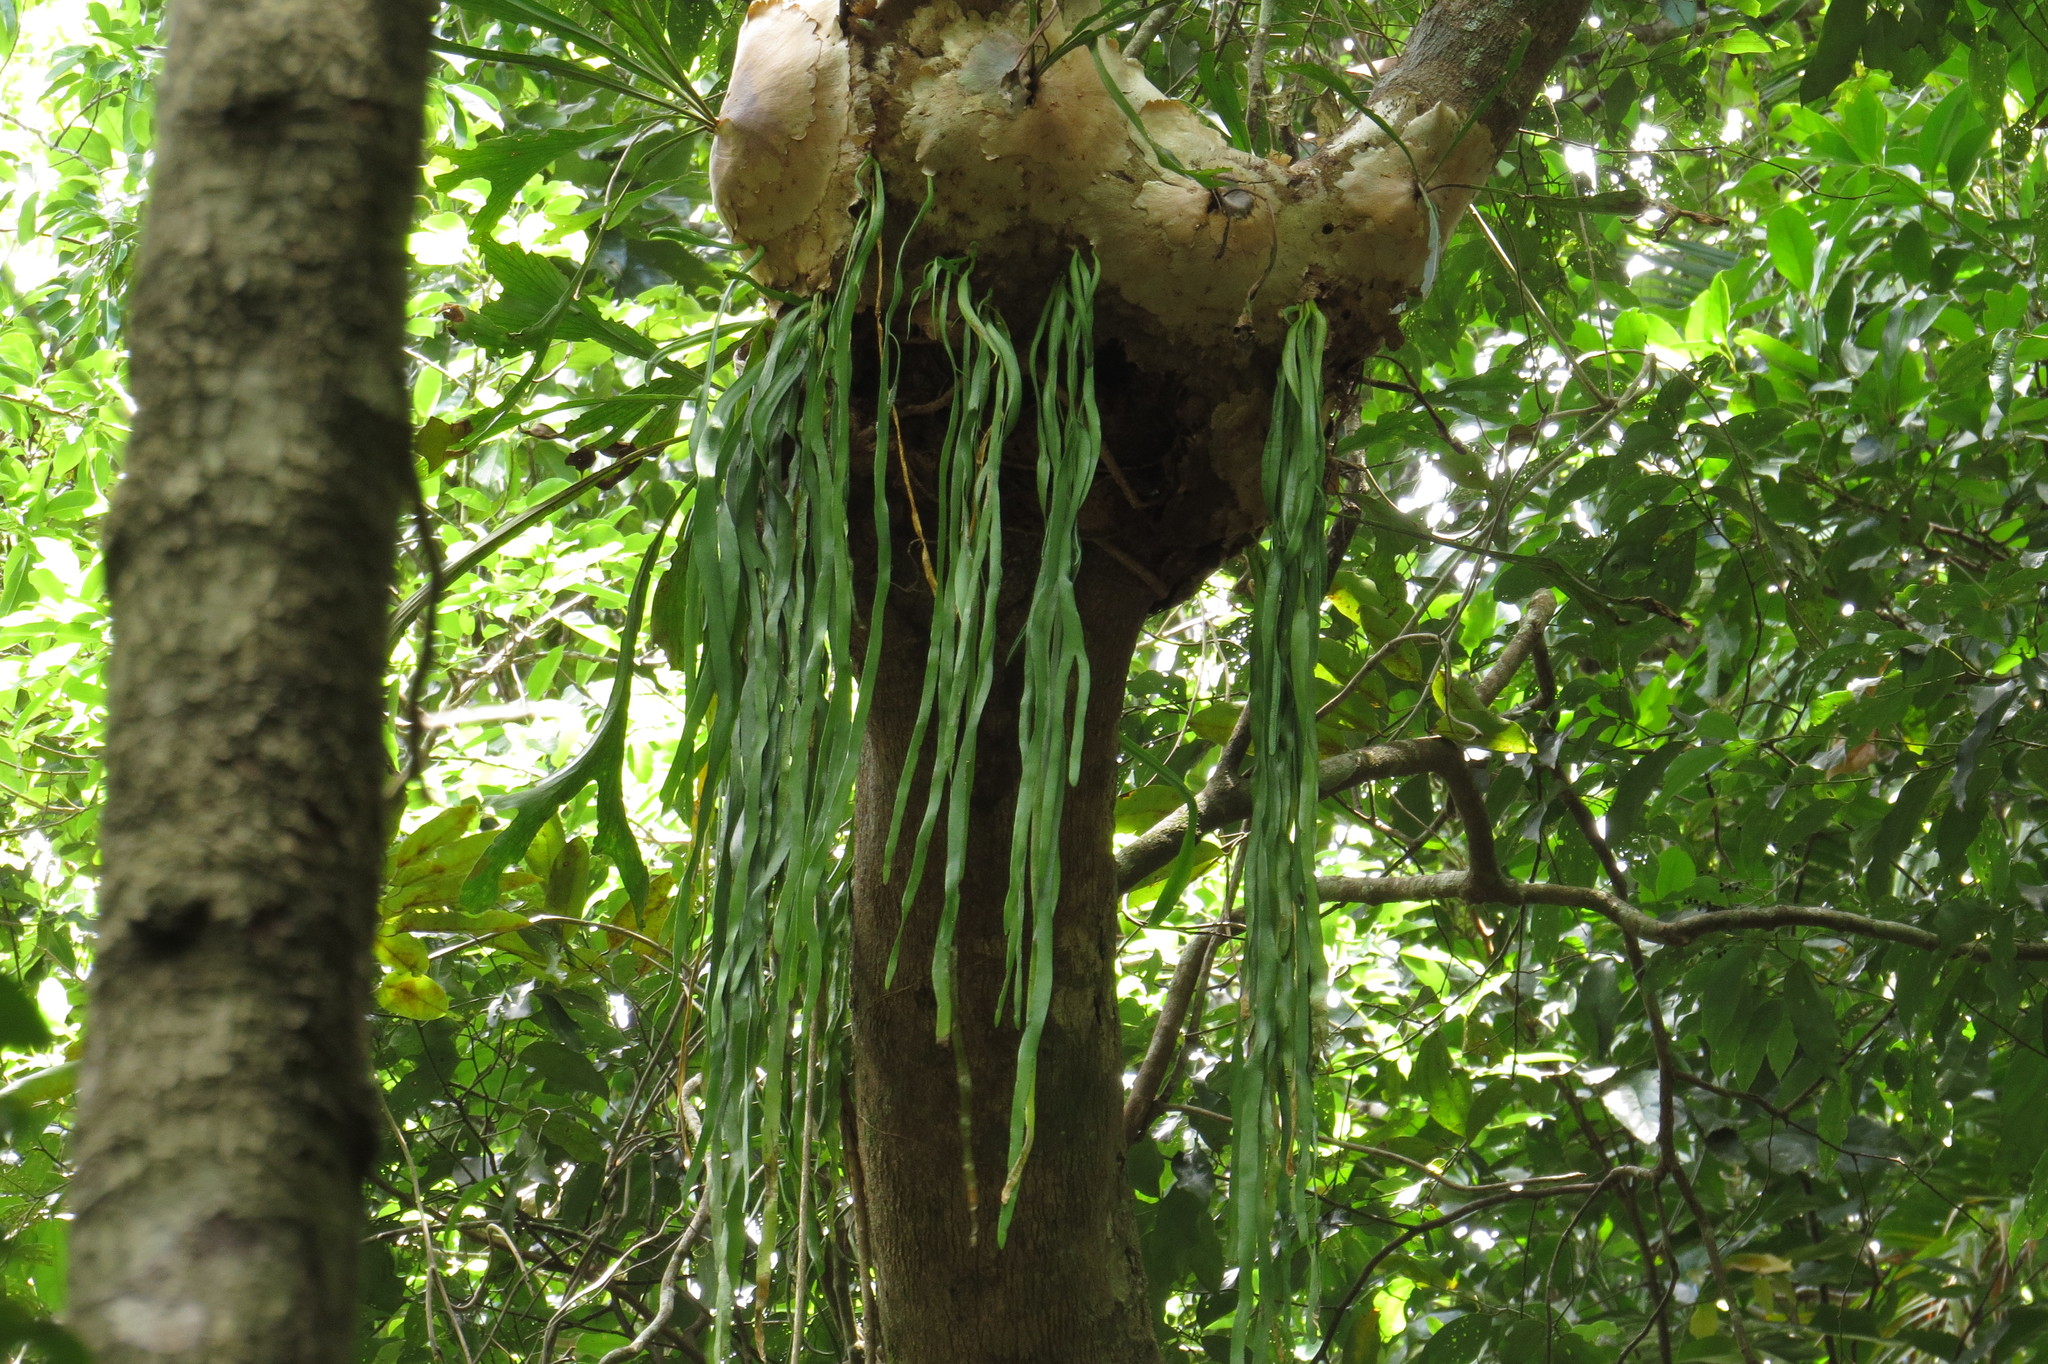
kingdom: Plantae
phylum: Tracheophyta
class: Polypodiopsida
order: Ophioglossales
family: Ophioglossaceae
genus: Ophioderma
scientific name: Ophioderma pendulum
